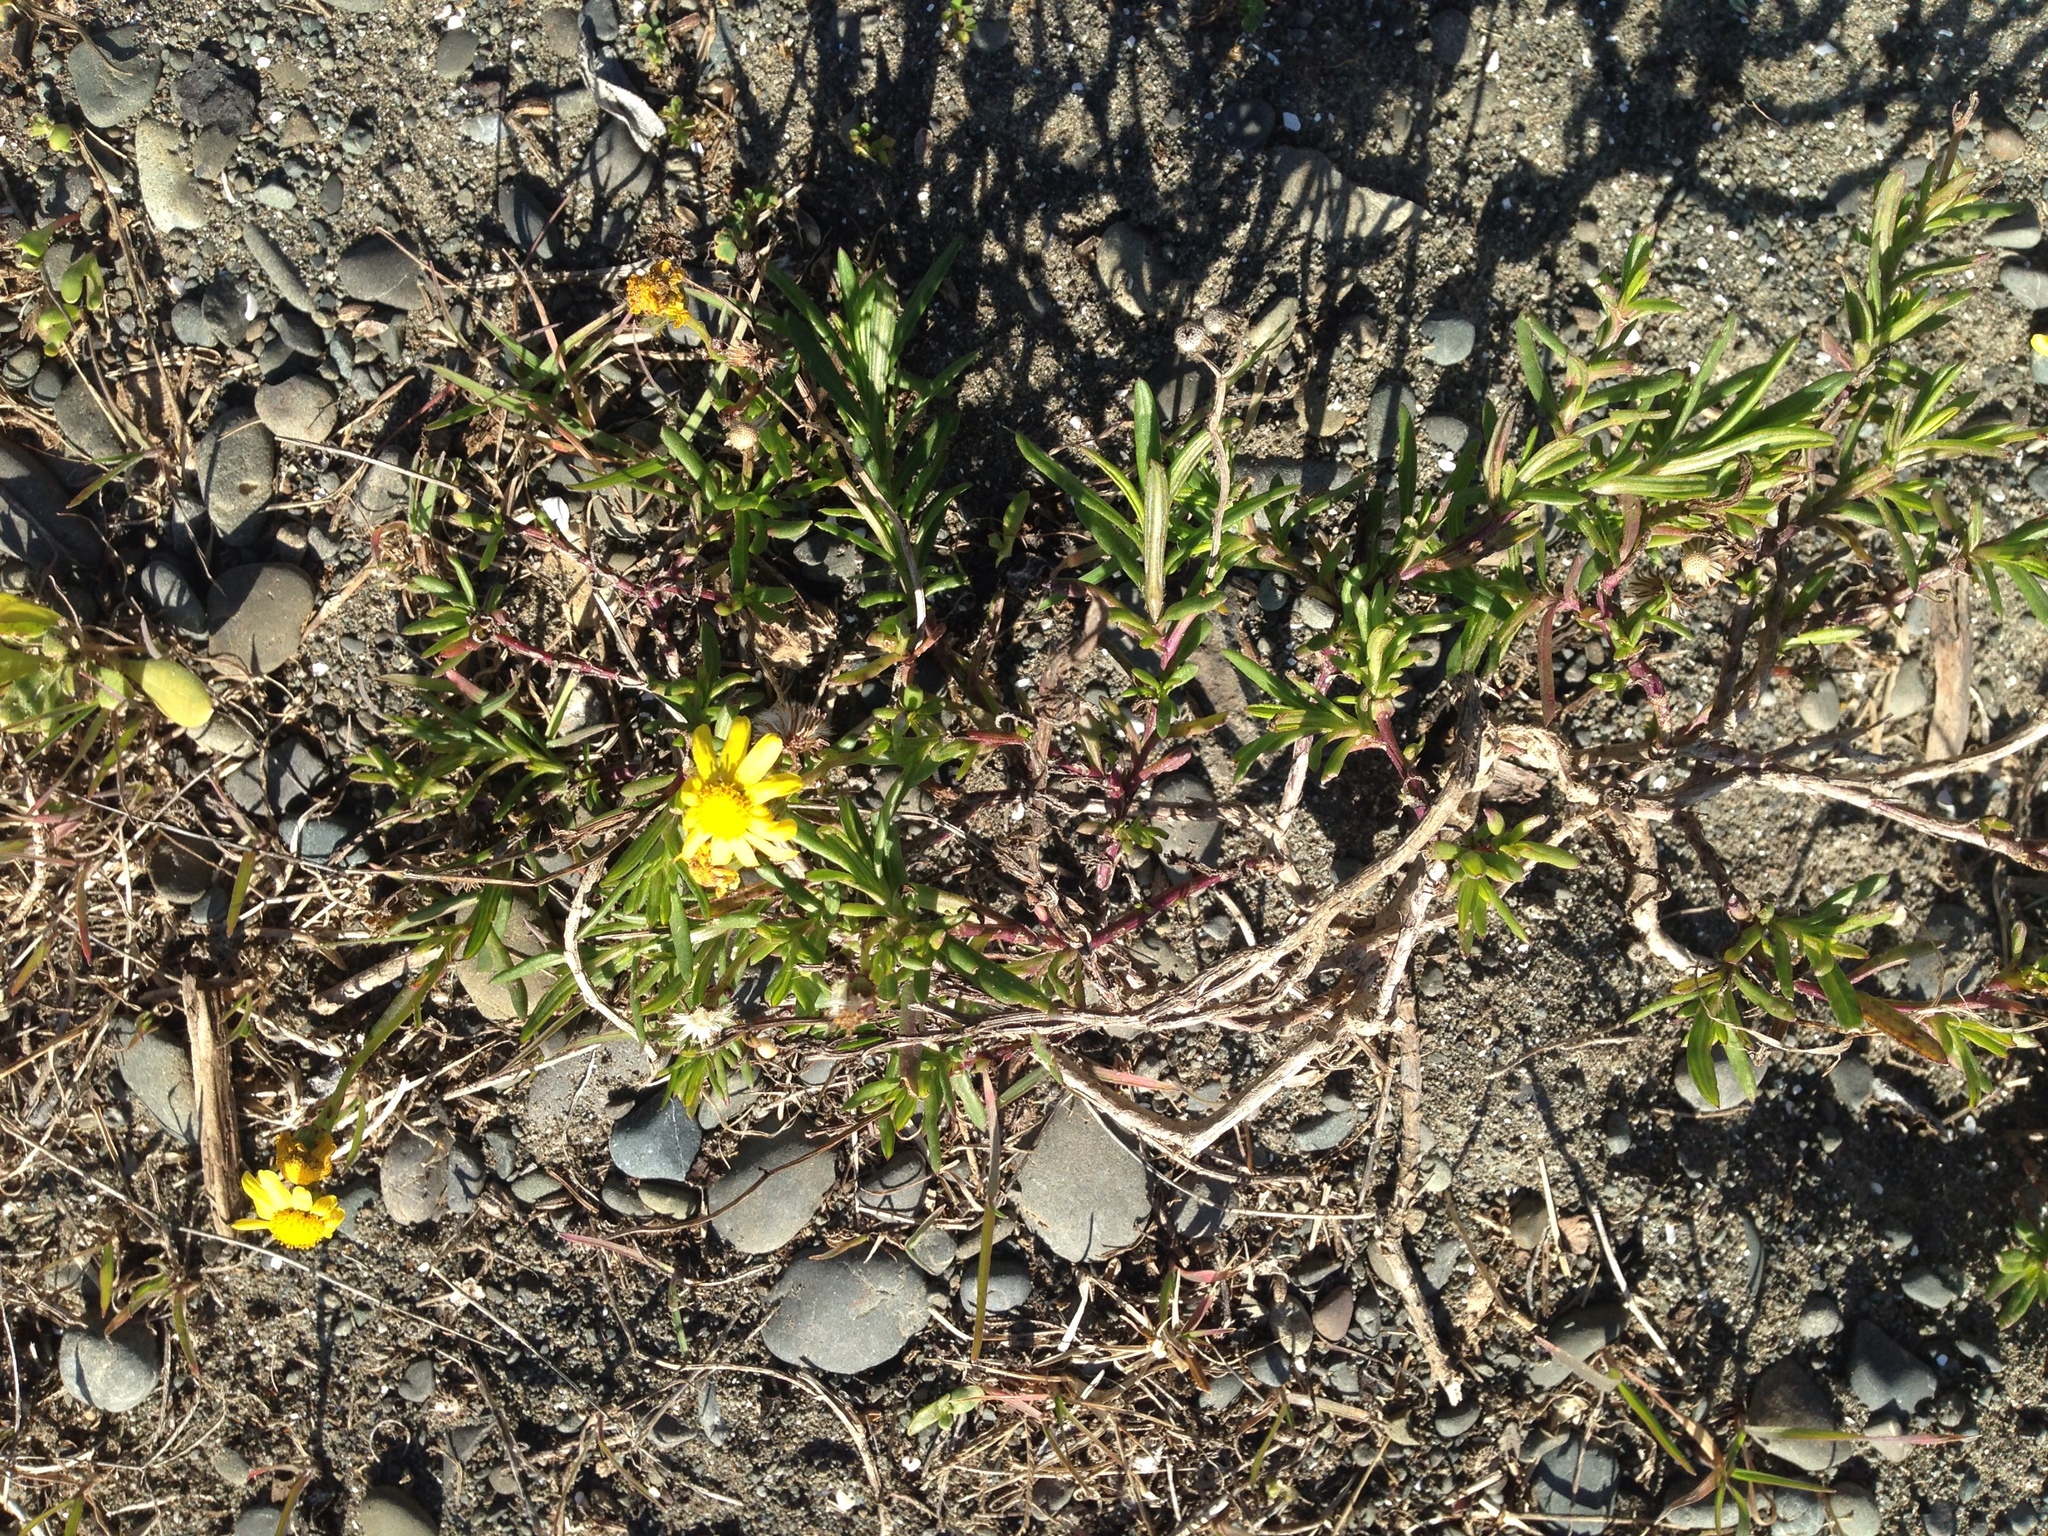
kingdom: Plantae
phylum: Tracheophyta
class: Magnoliopsida
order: Asterales
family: Asteraceae
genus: Senecio
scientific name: Senecio skirrhodon
